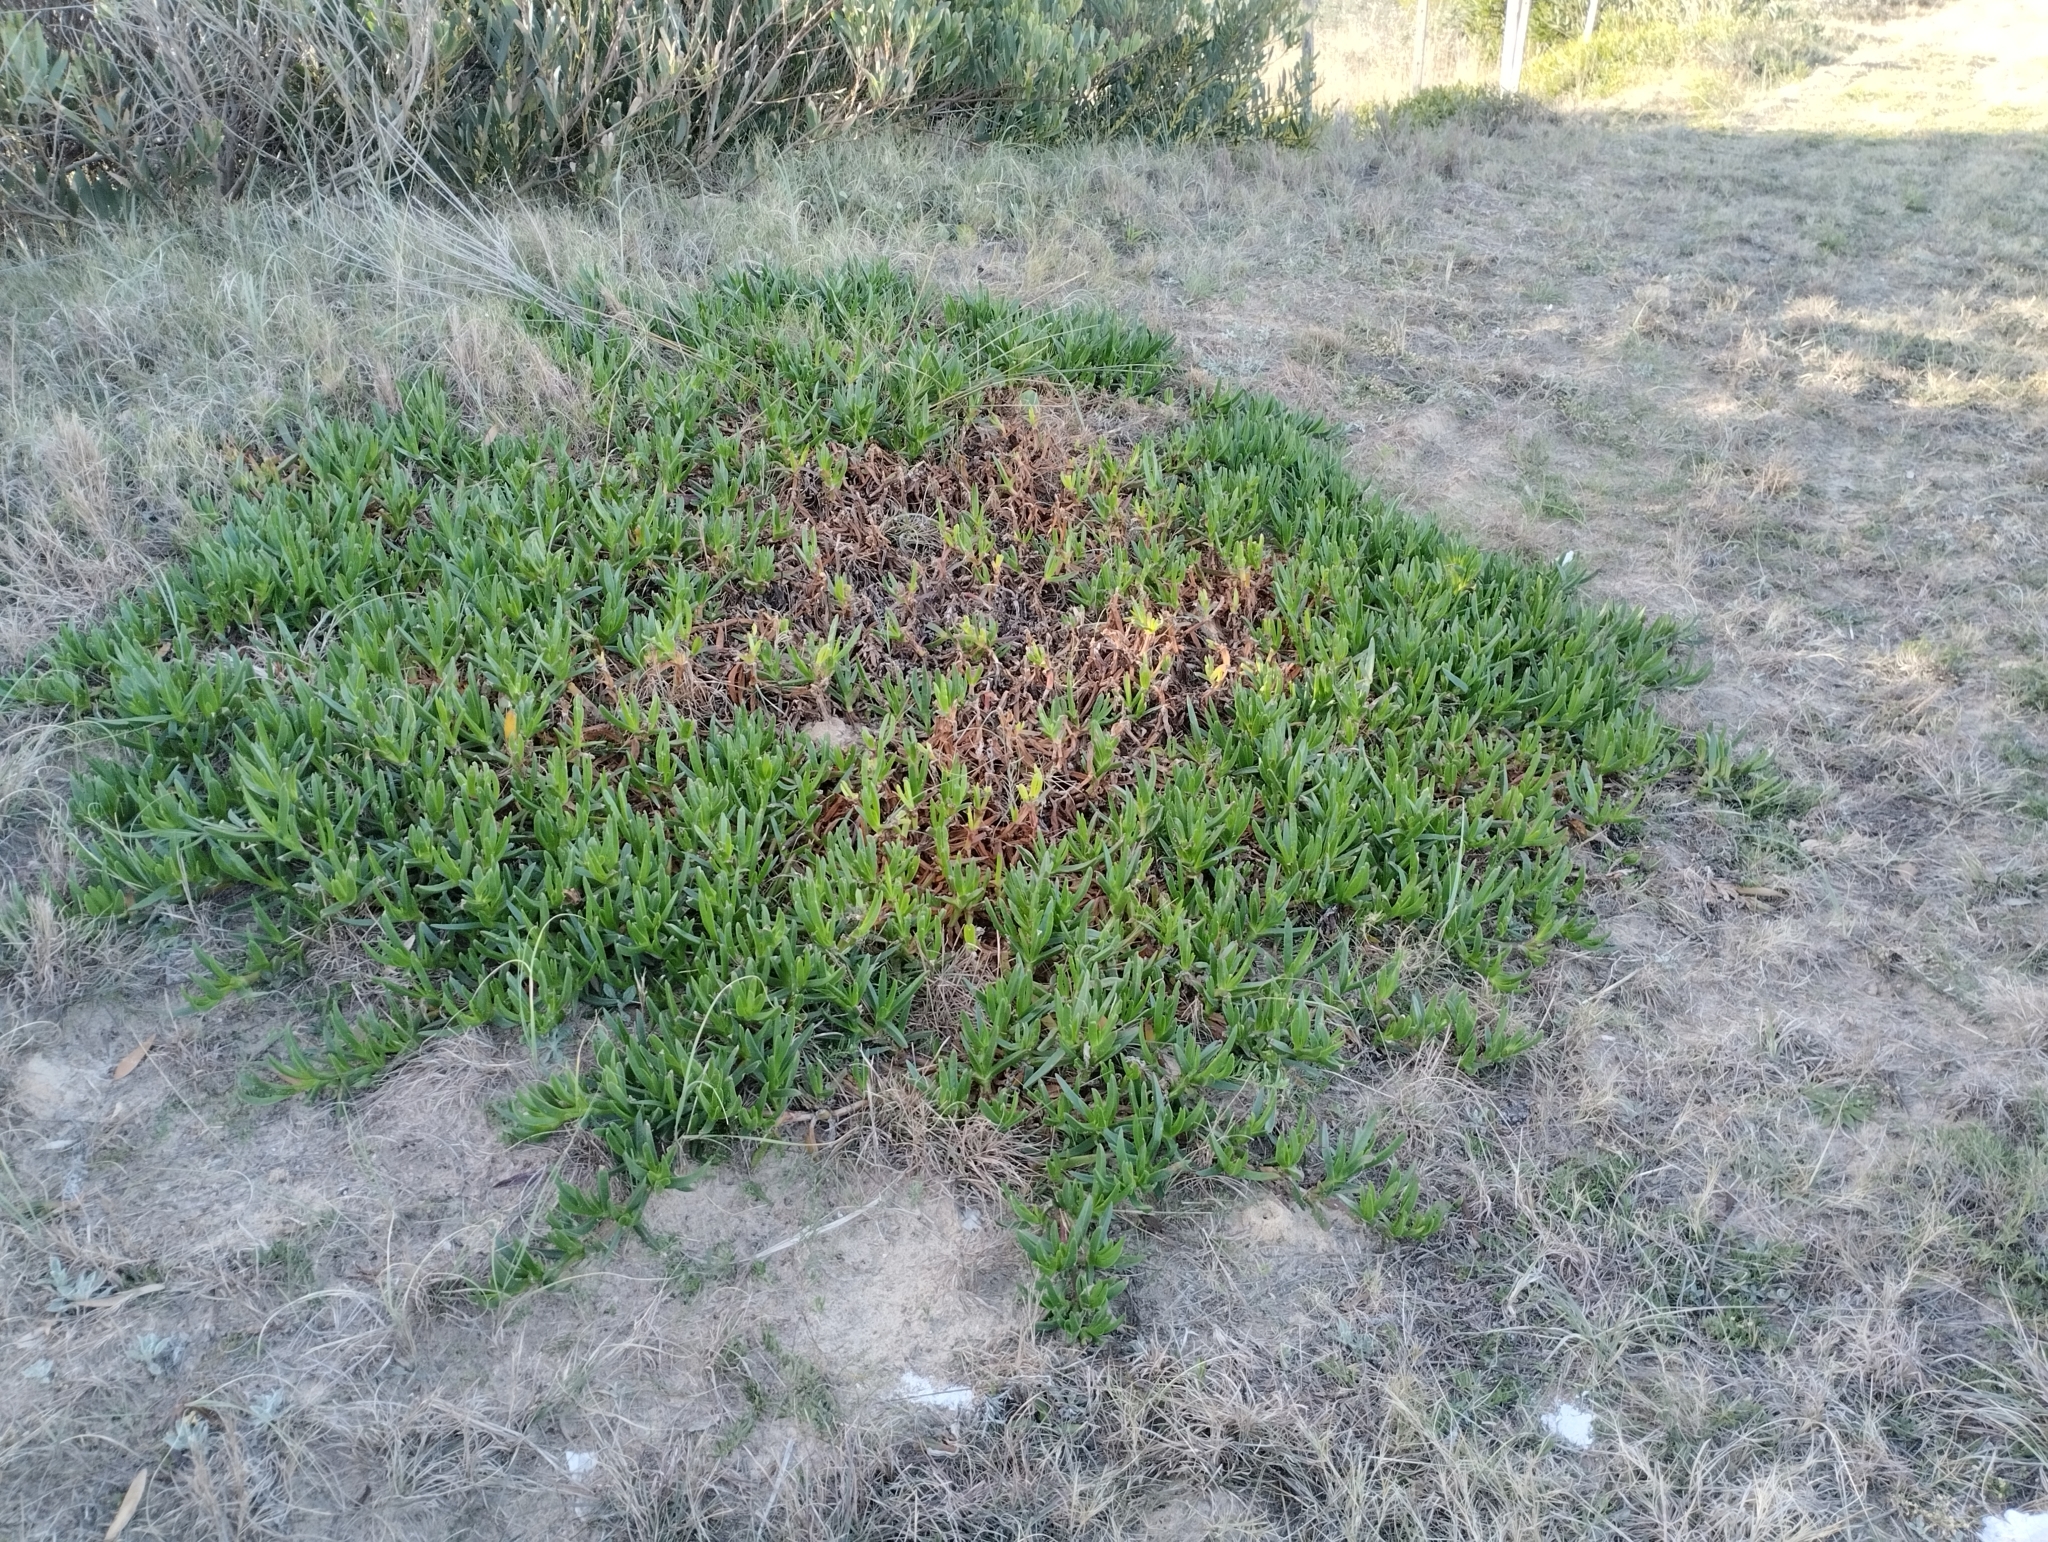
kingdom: Plantae
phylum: Tracheophyta
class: Magnoliopsida
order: Caryophyllales
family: Aizoaceae
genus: Carpobrotus
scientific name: Carpobrotus edulis
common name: Hottentot-fig
